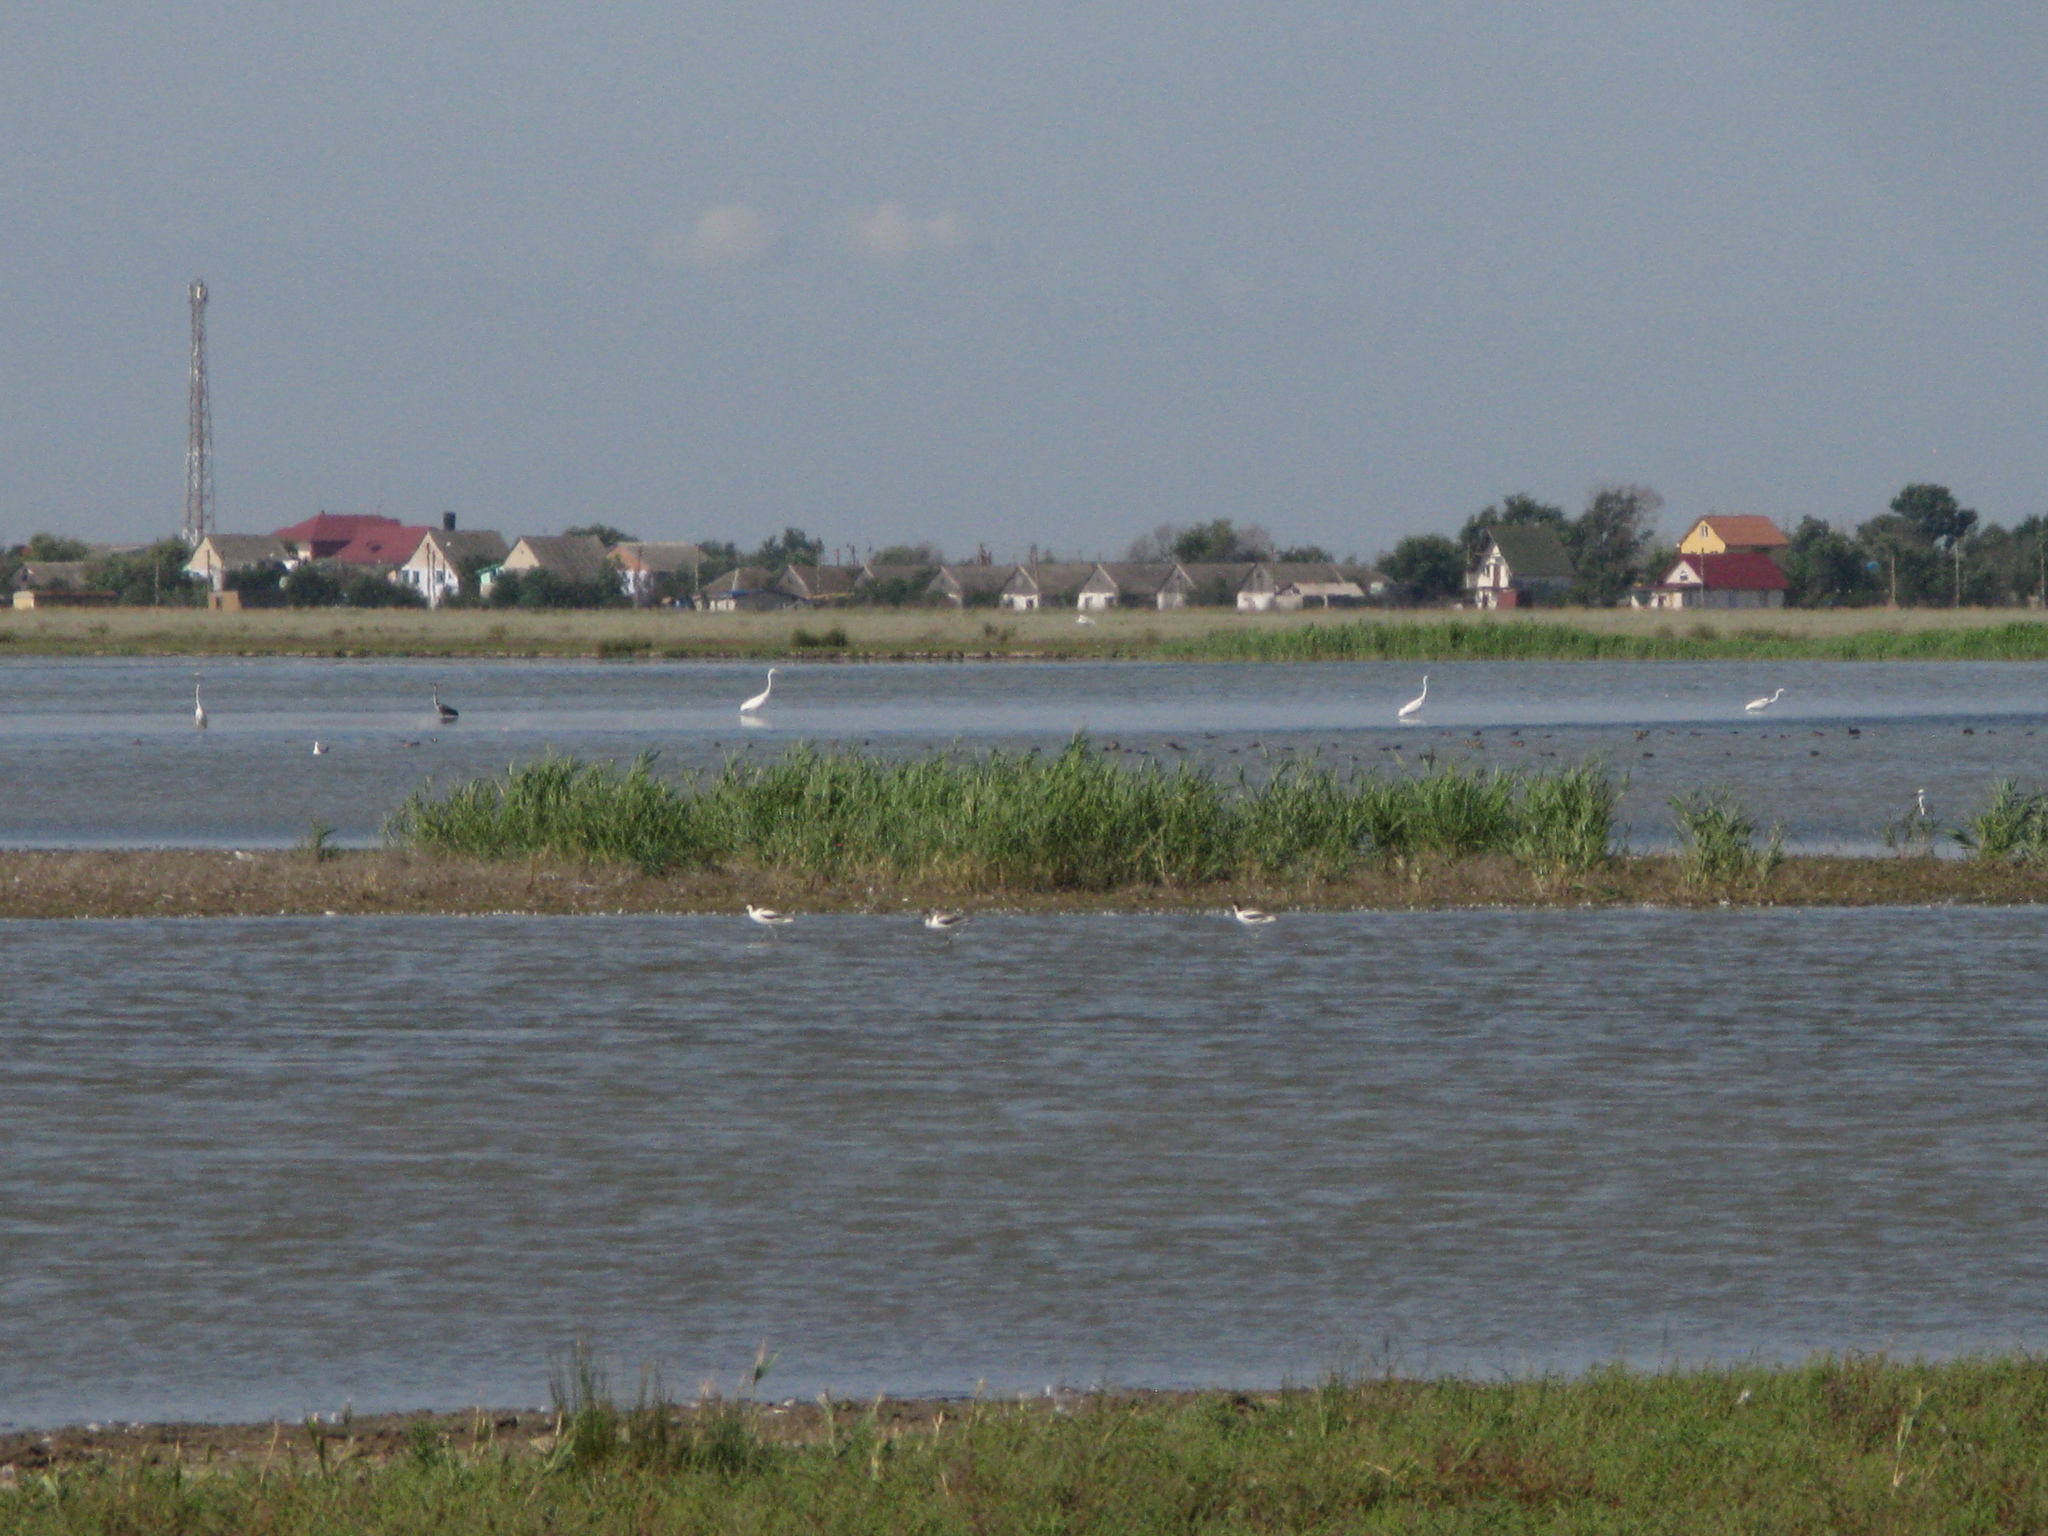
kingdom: Animalia
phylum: Chordata
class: Aves
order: Charadriiformes
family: Recurvirostridae
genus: Recurvirostra
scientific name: Recurvirostra avosetta
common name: Pied avocet
